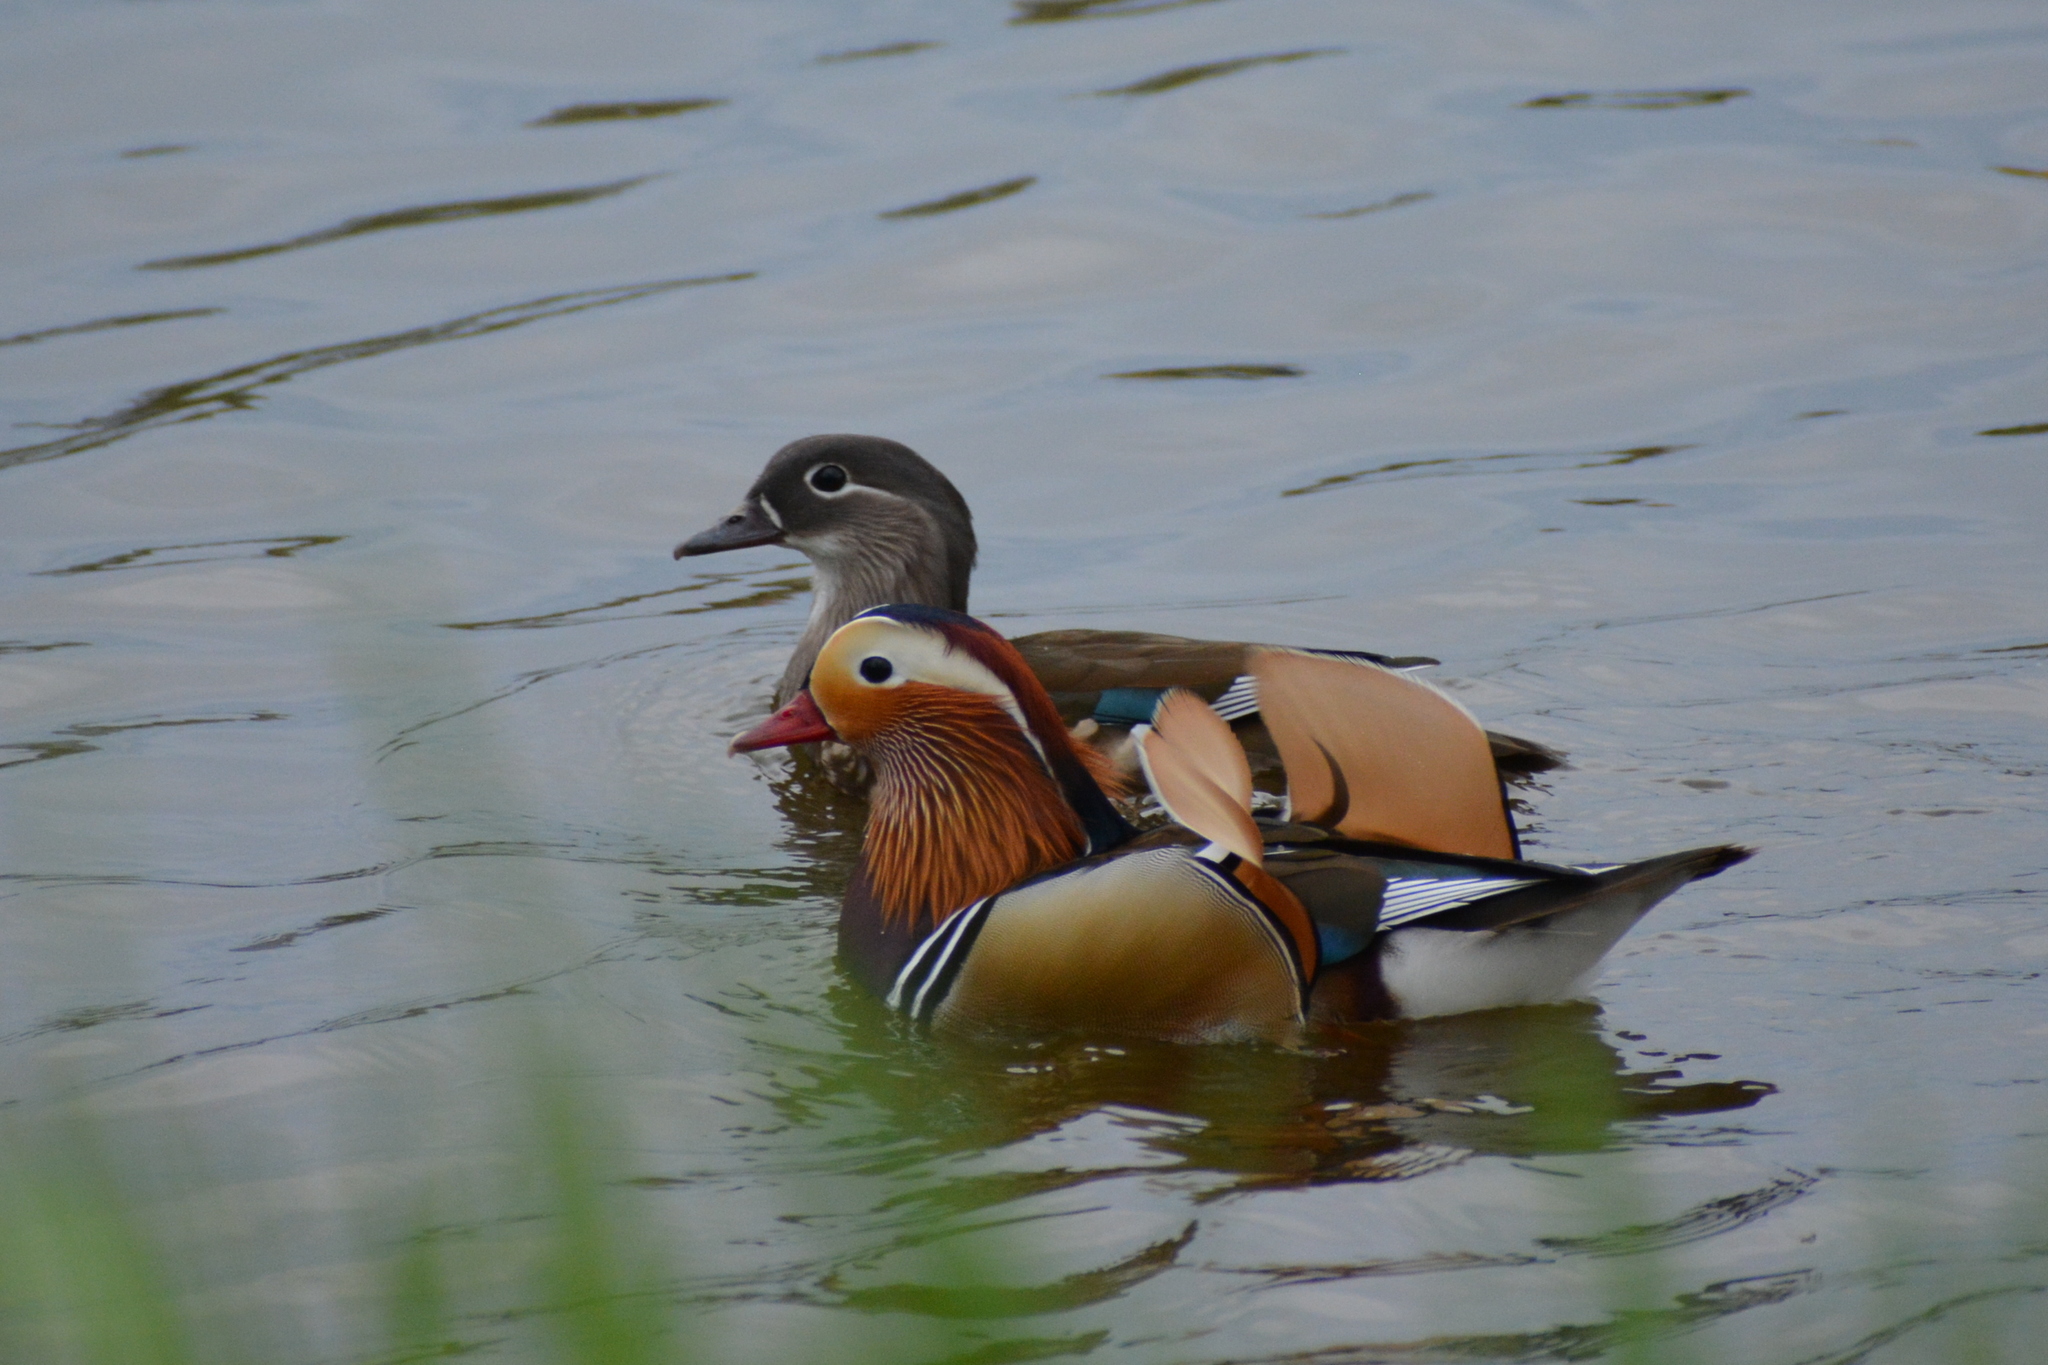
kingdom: Animalia
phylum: Chordata
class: Aves
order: Anseriformes
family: Anatidae
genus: Aix
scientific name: Aix galericulata
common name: Mandarin duck
